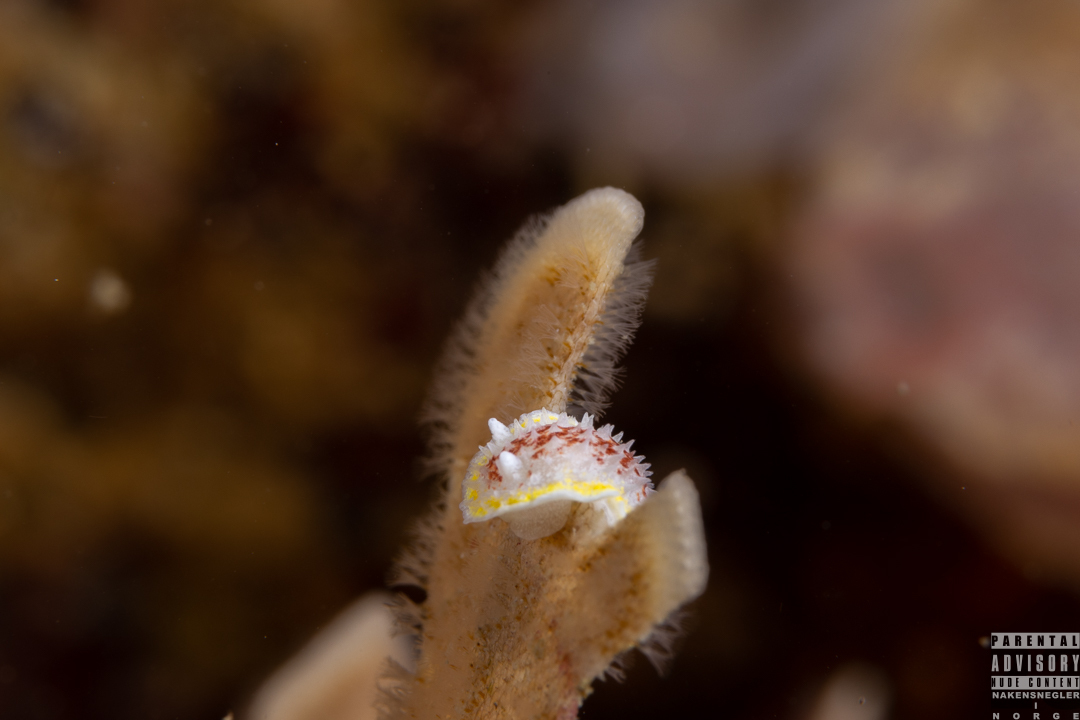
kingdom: Animalia
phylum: Mollusca
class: Gastropoda
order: Nudibranchia
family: Calycidorididae
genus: Diaphorodoris
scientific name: Diaphorodoris luteocincta
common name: Fried egg nudibranch
